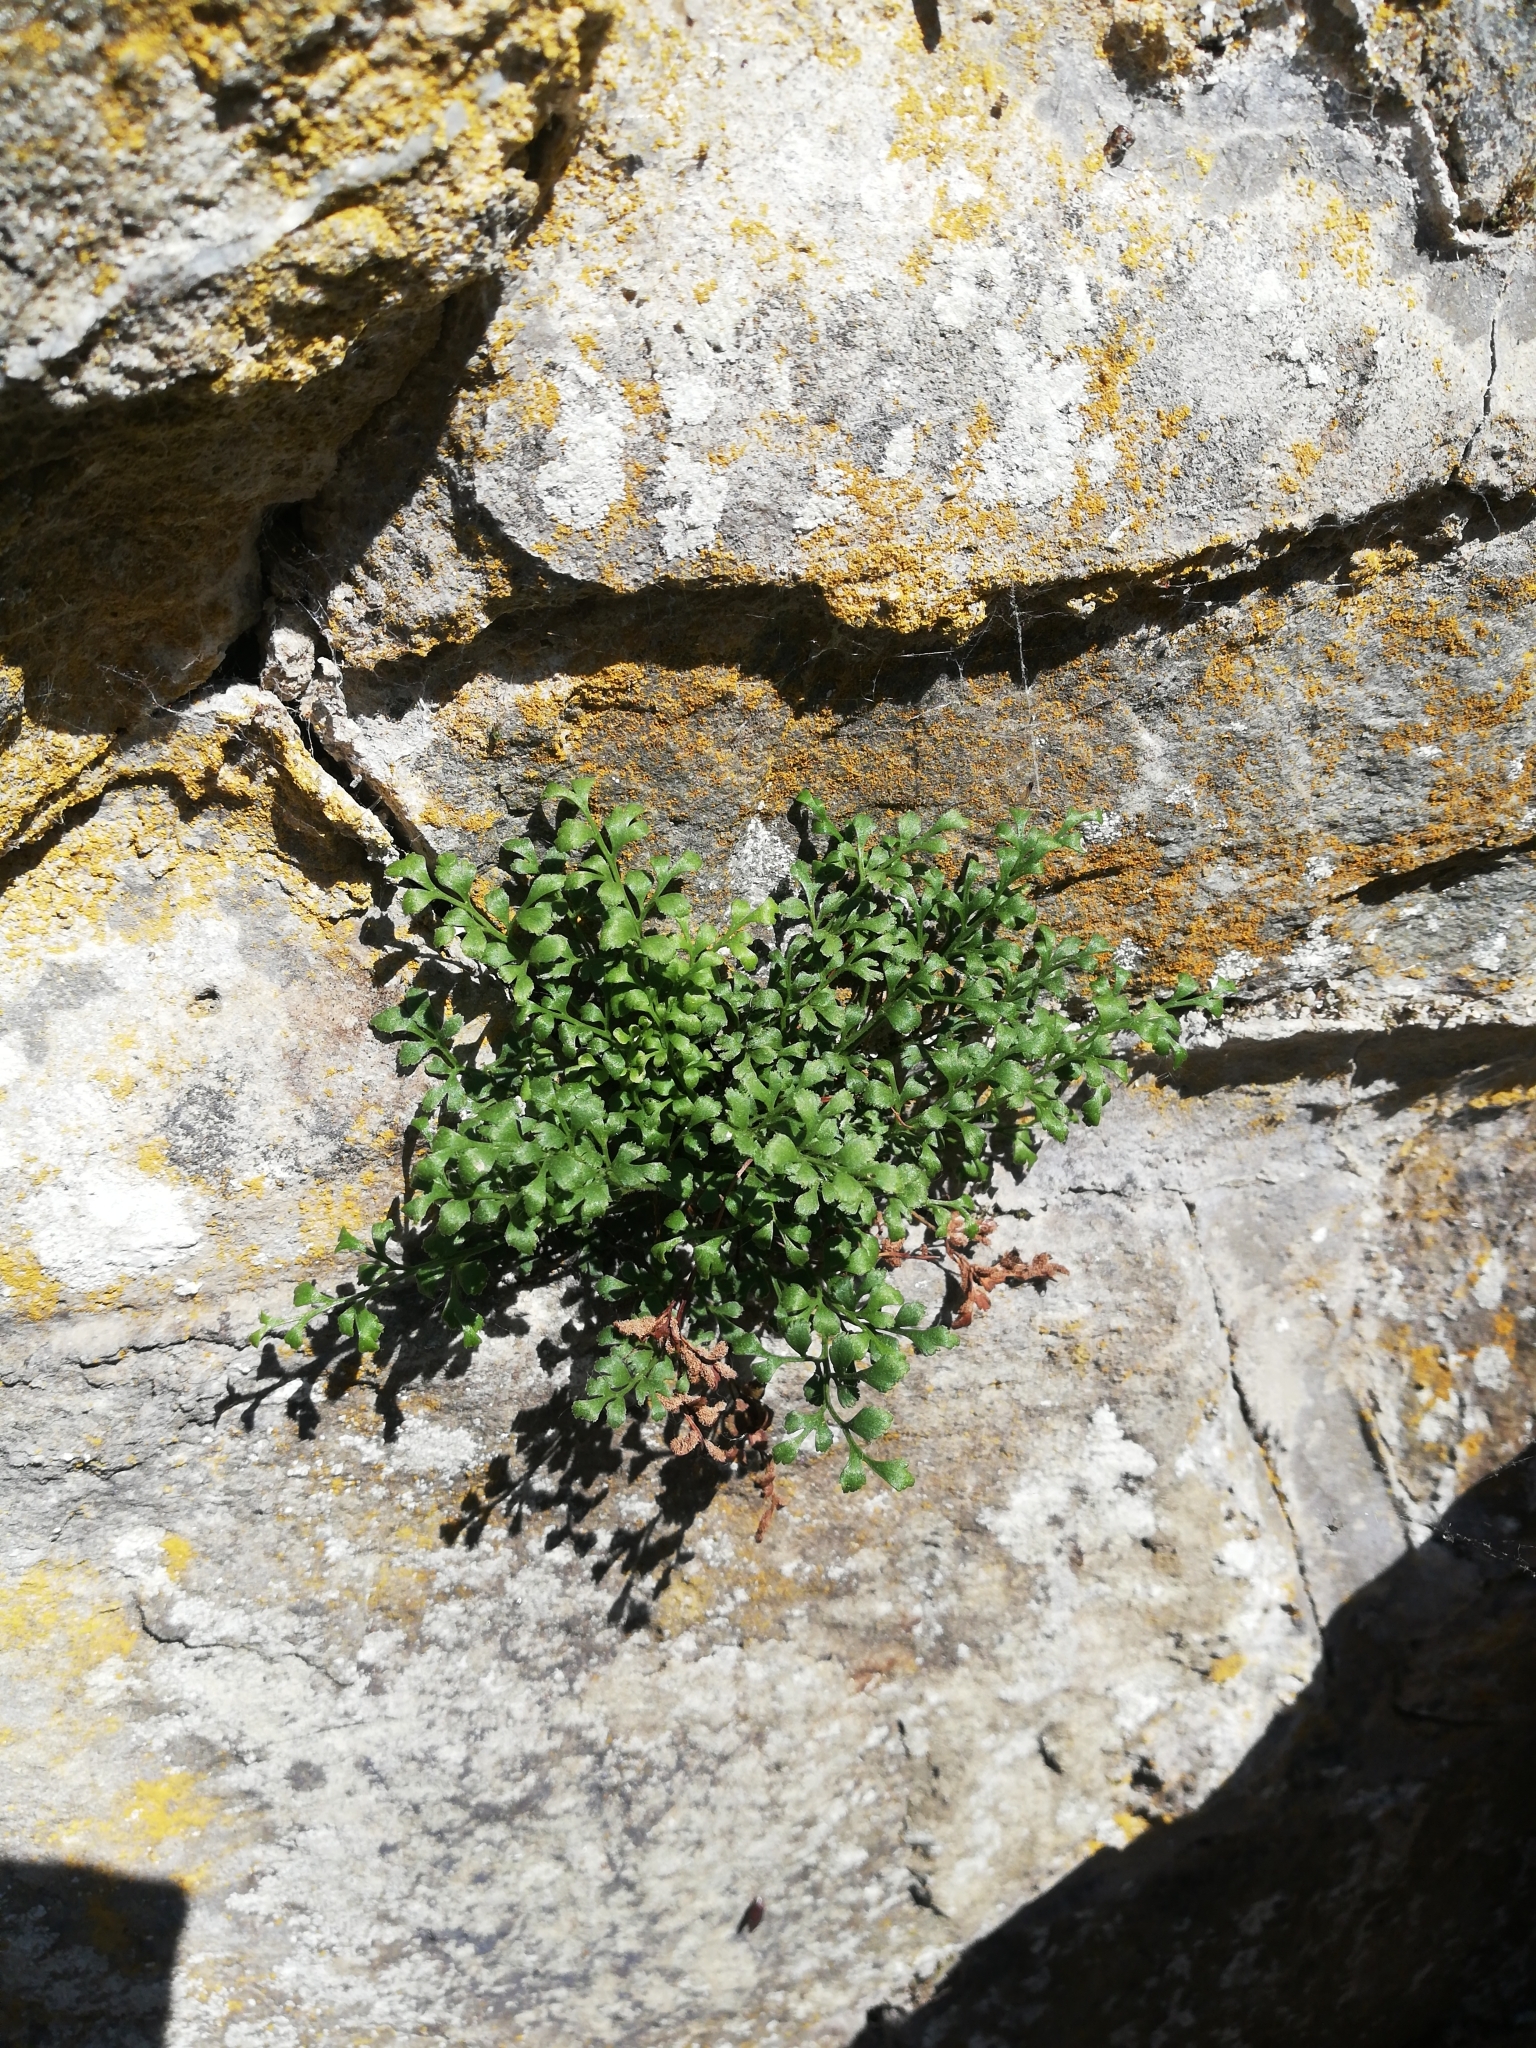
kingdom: Plantae
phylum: Tracheophyta
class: Polypodiopsida
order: Polypodiales
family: Aspleniaceae
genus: Asplenium
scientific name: Asplenium ruta-muraria
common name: Wall-rue
